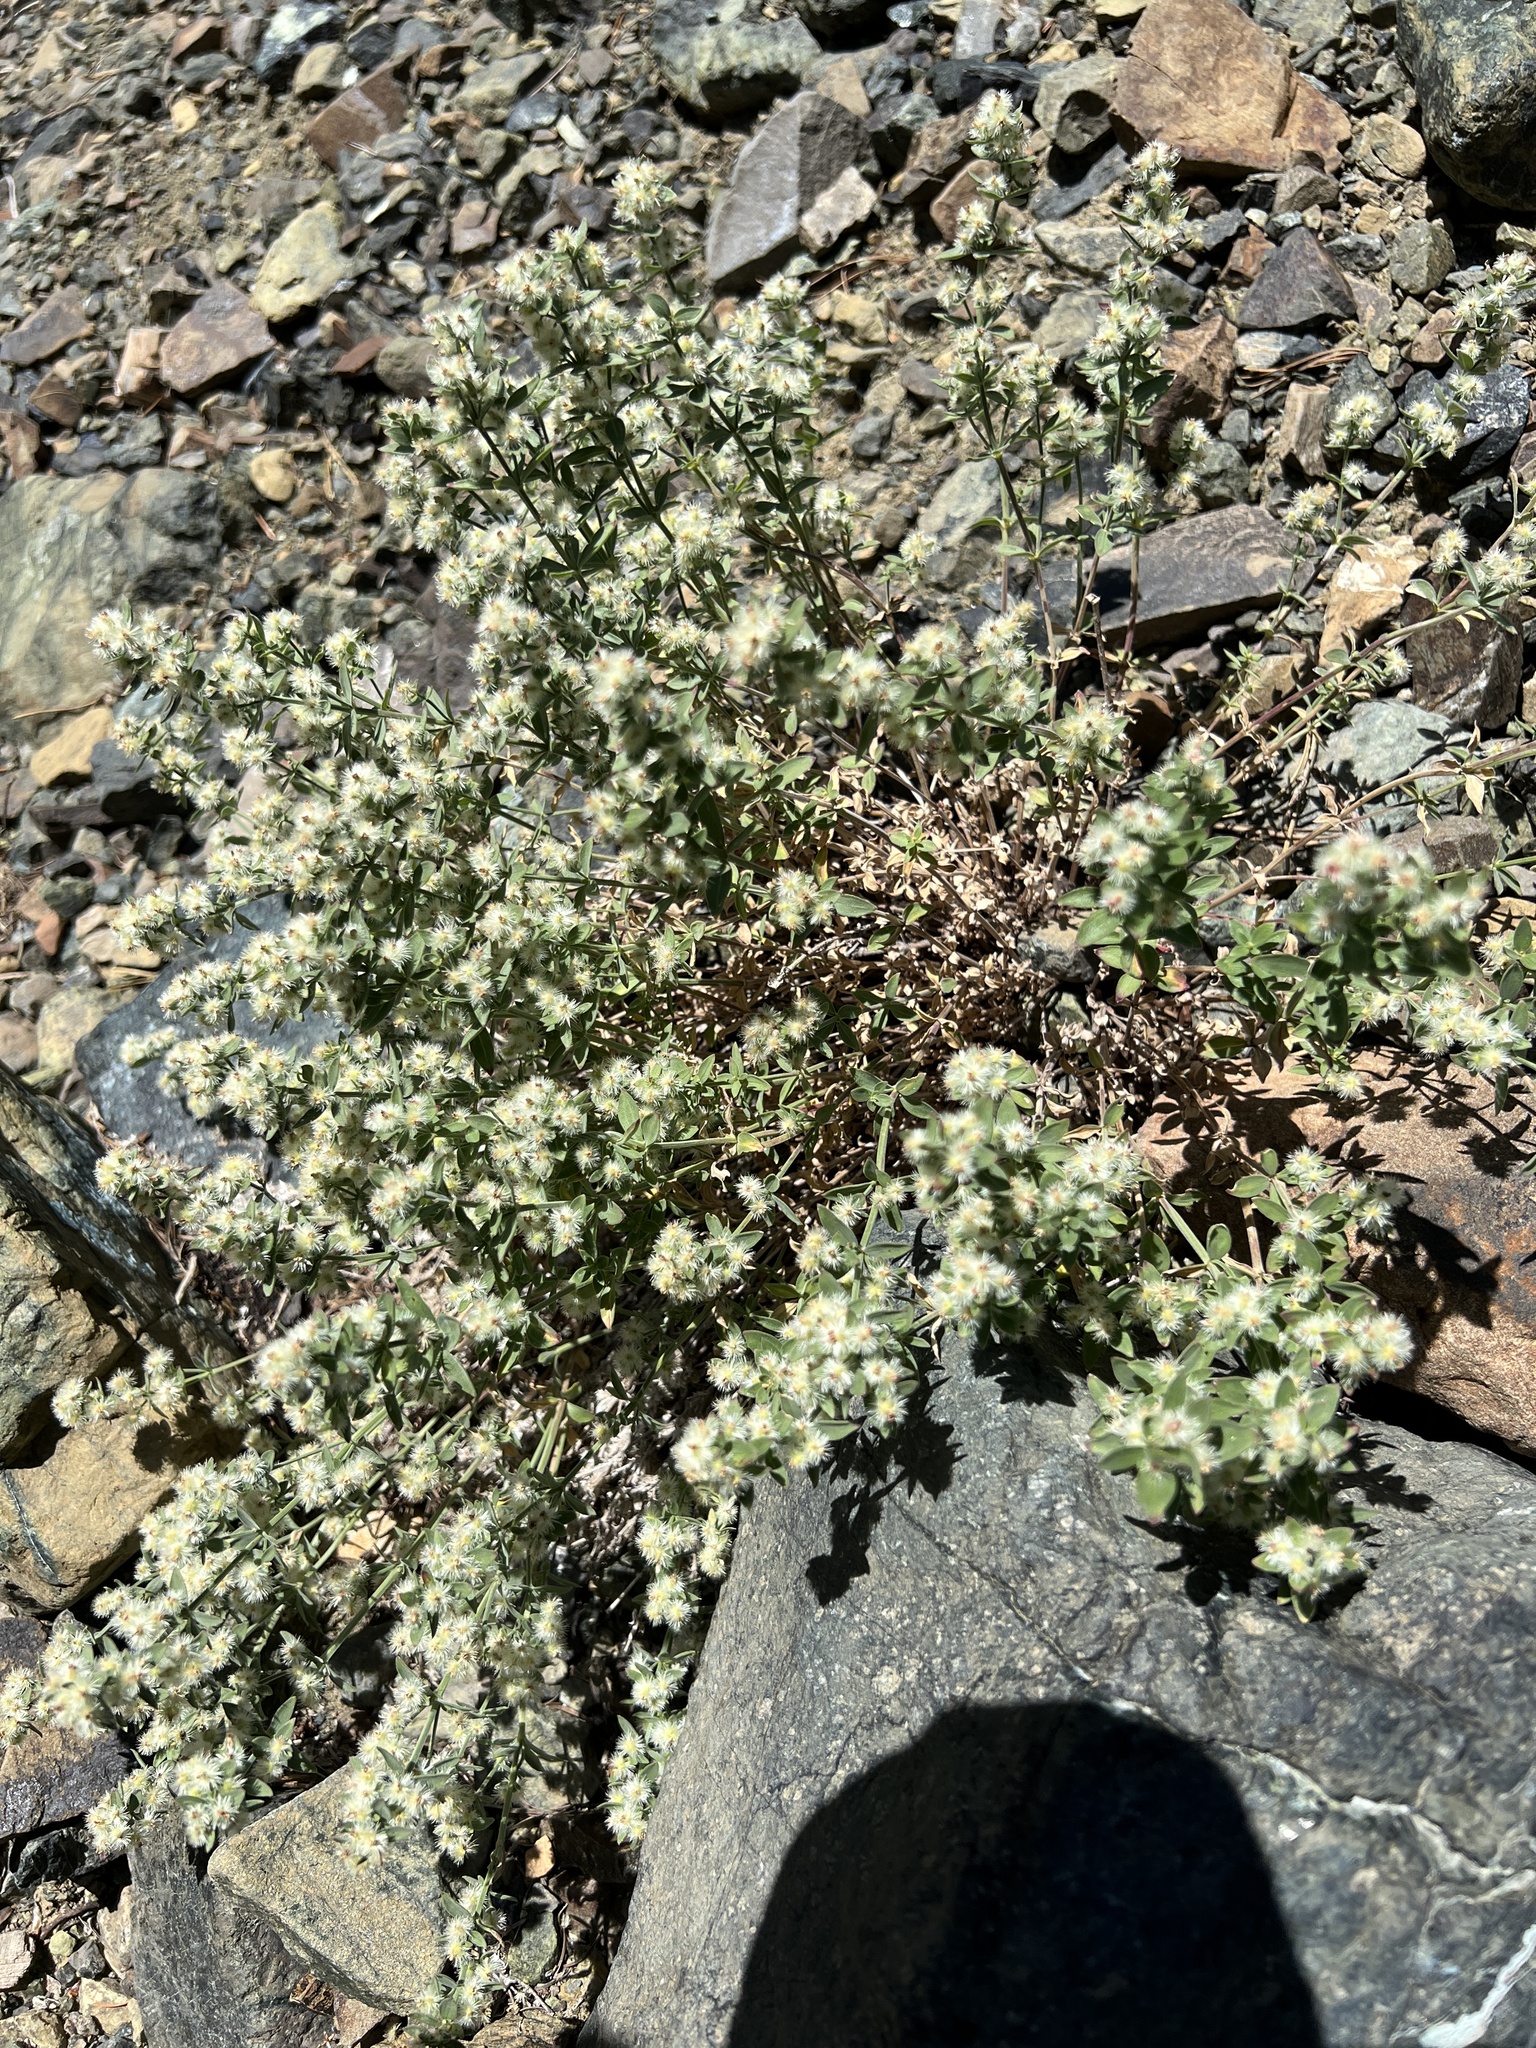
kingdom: Plantae
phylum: Tracheophyta
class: Magnoliopsida
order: Gentianales
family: Rubiaceae
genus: Galium
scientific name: Galium serpenticum
